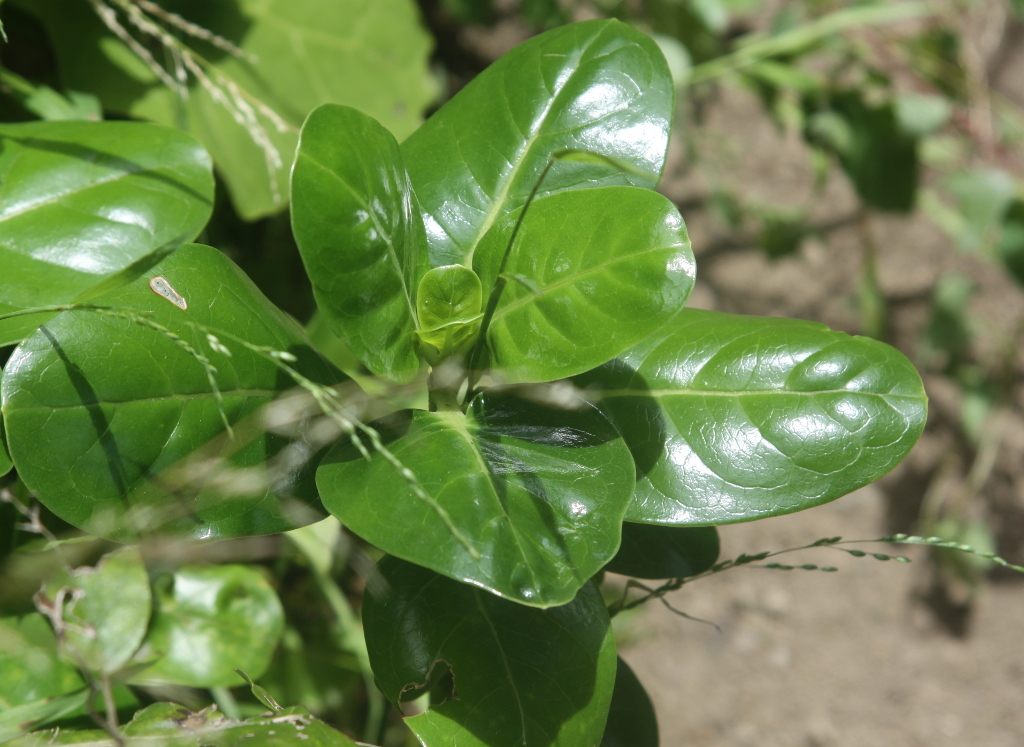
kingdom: Plantae
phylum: Tracheophyta
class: Magnoliopsida
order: Gentianales
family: Rubiaceae
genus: Coprosma
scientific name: Coprosma repens
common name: Tree bedstraw
